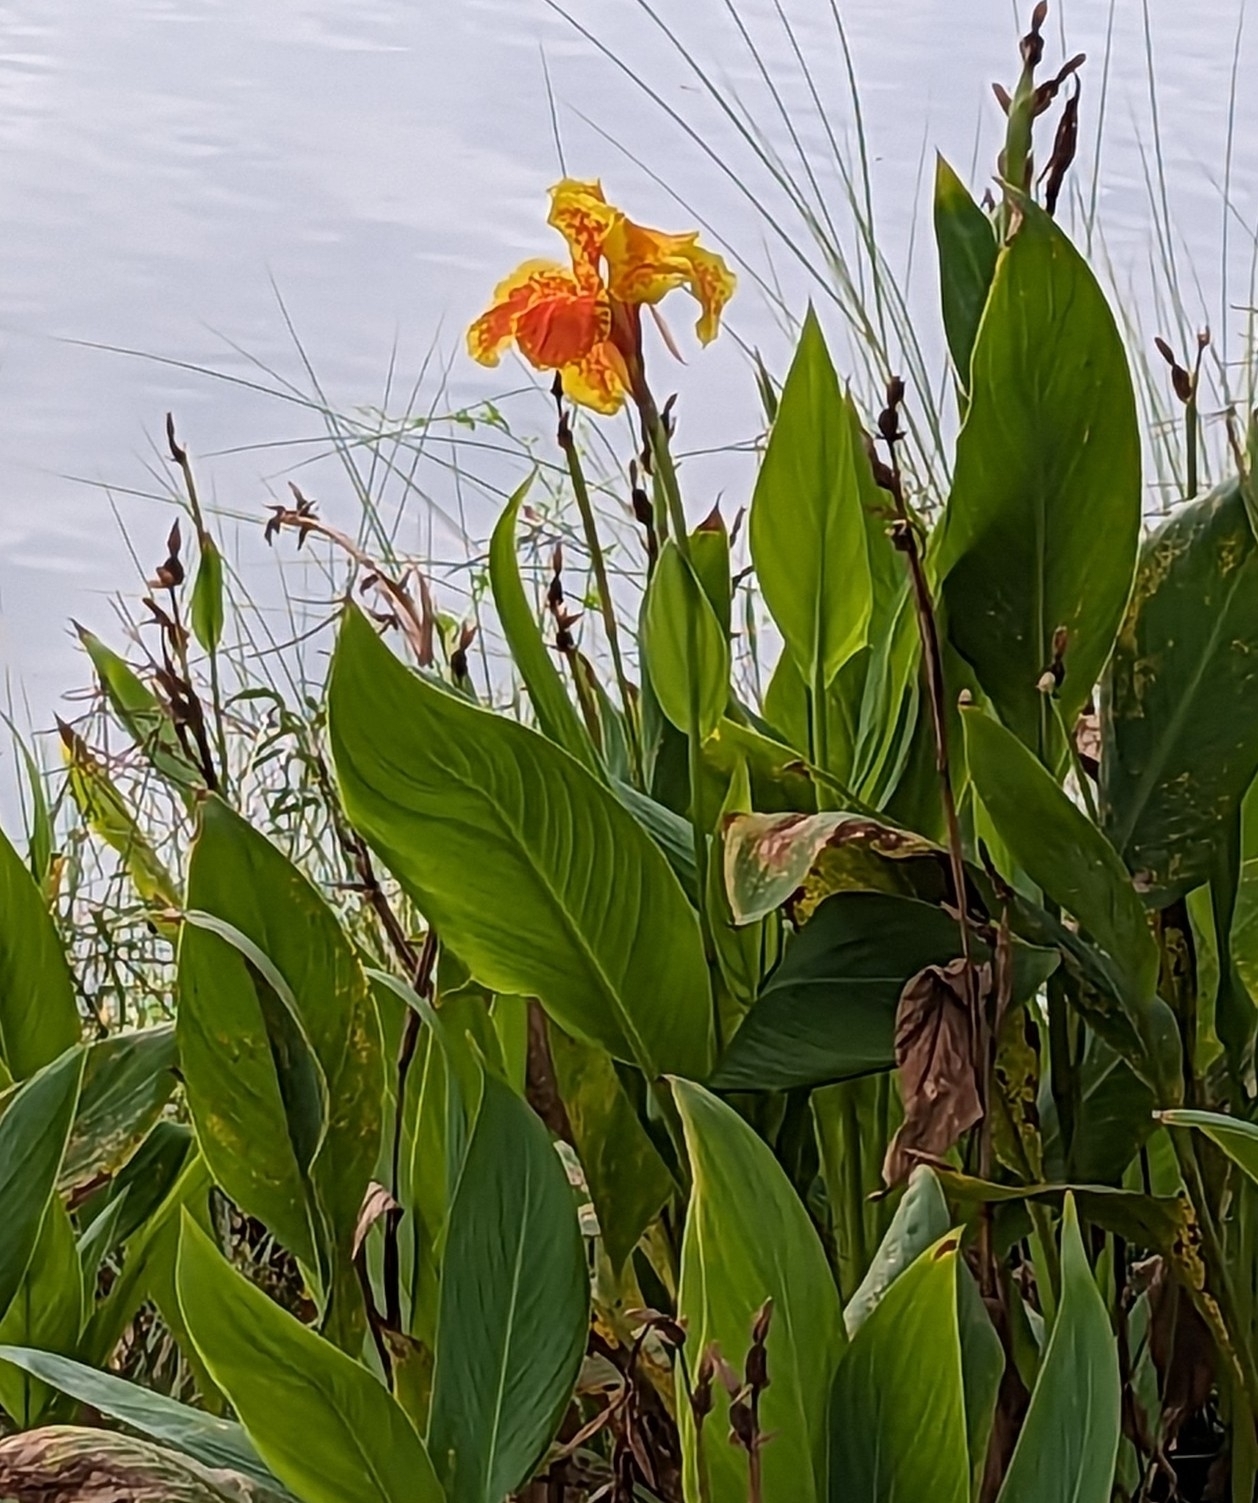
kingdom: Plantae
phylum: Tracheophyta
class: Liliopsida
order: Zingiberales
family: Cannaceae
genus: Canna
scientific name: Canna hybrida
